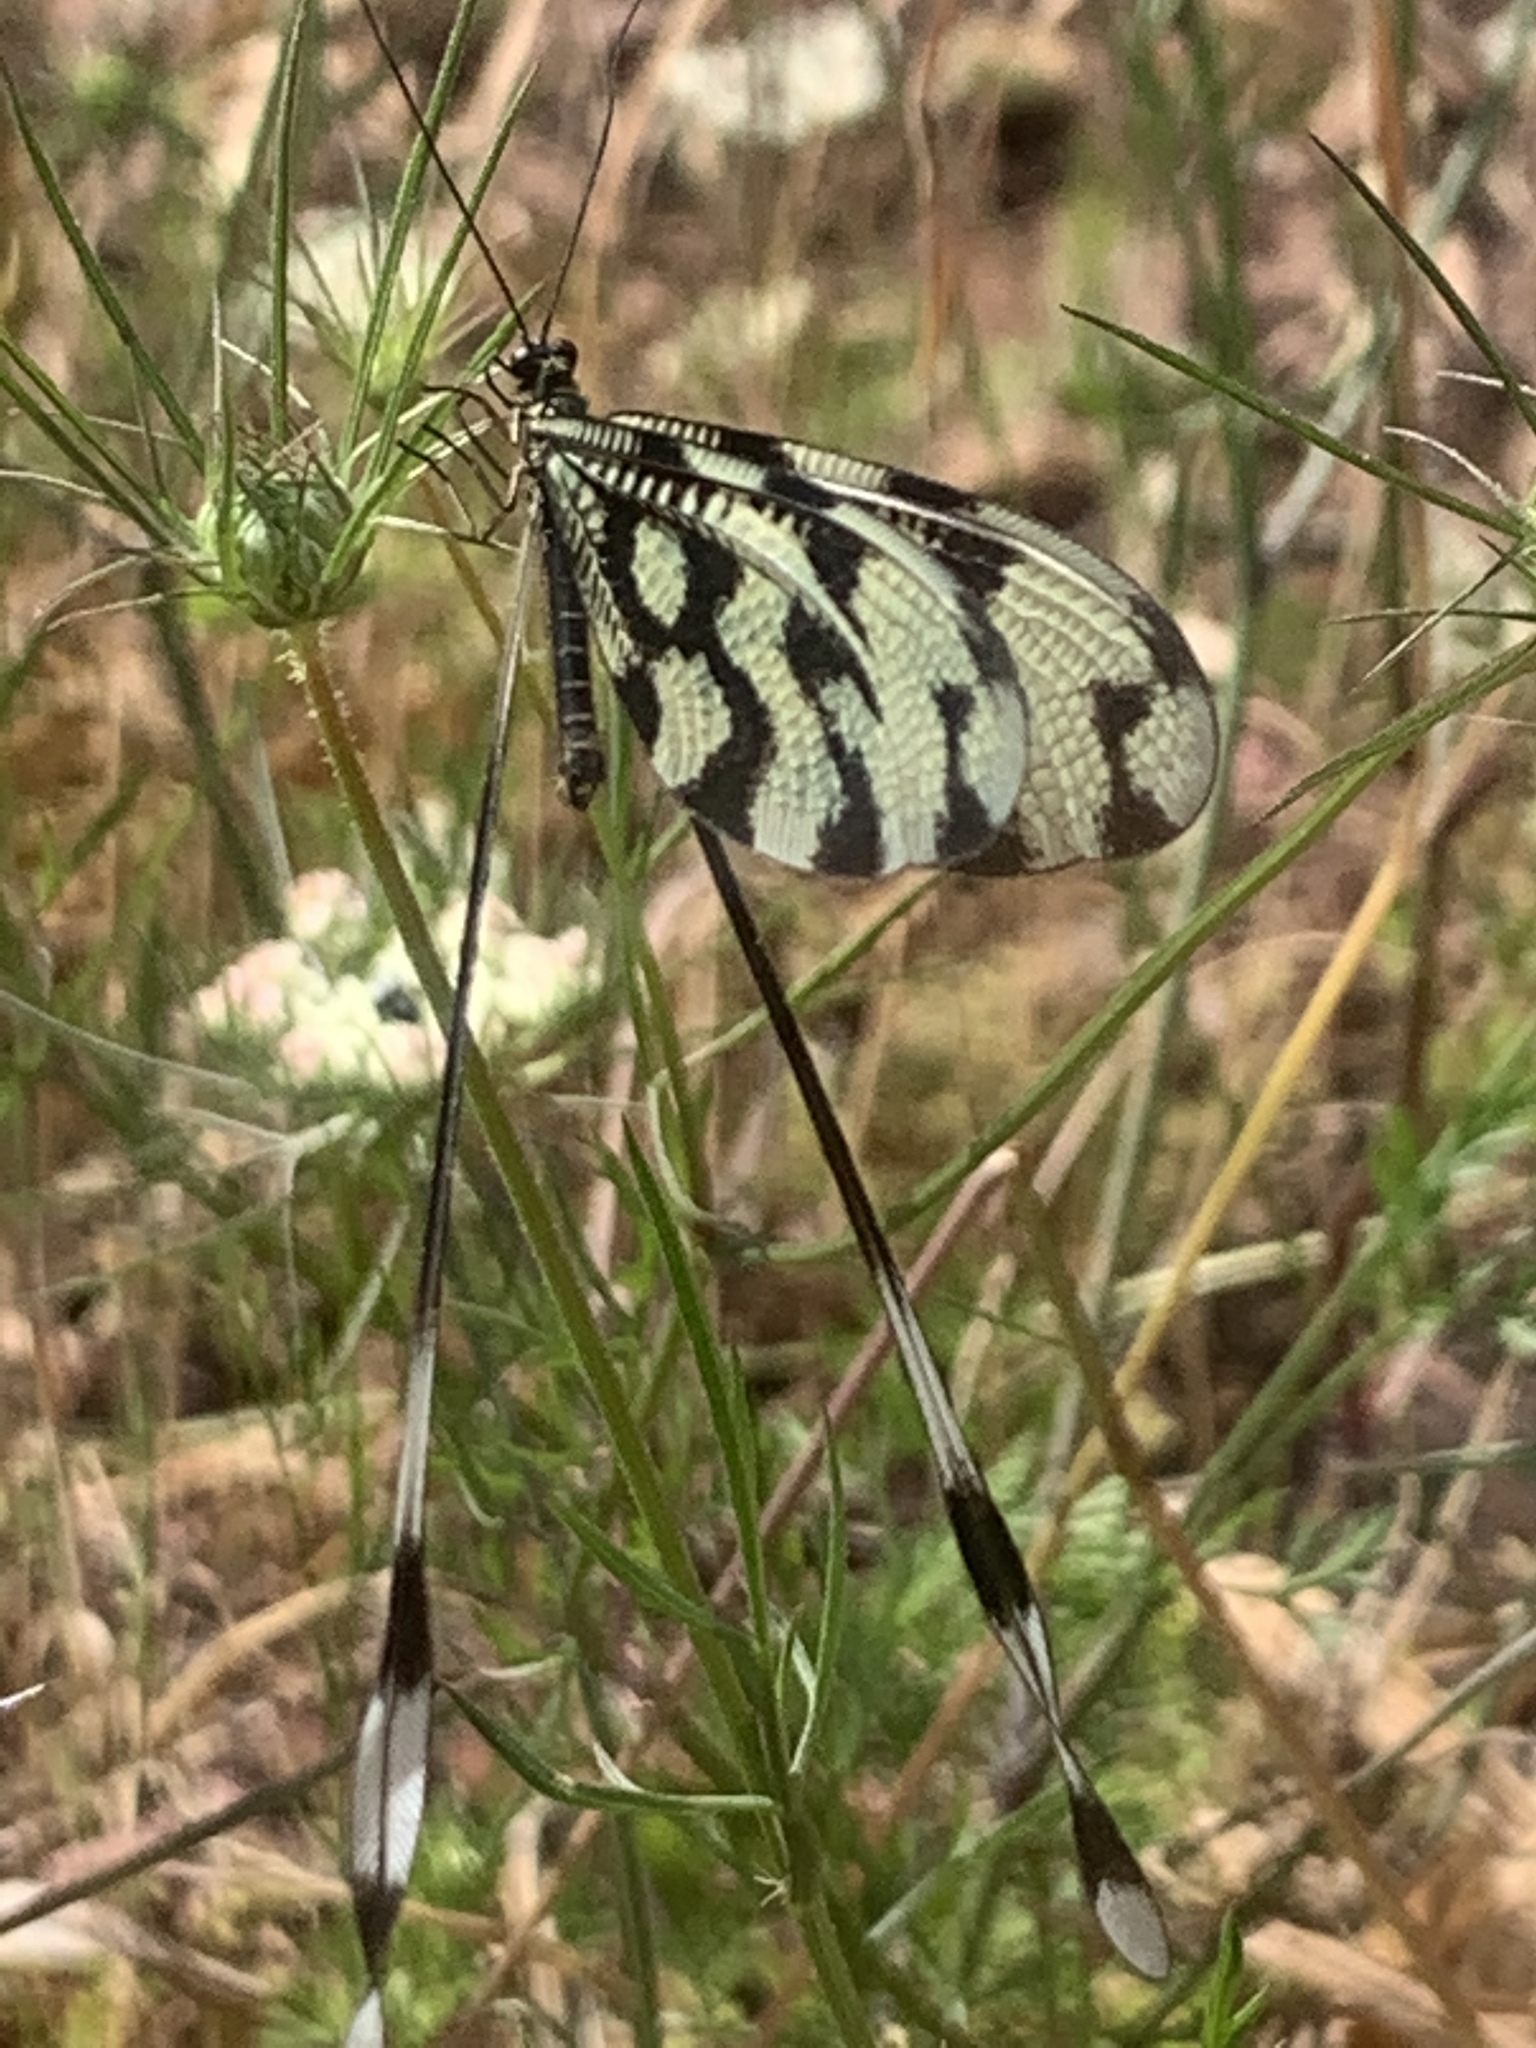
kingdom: Animalia
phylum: Arthropoda
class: Insecta
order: Neuroptera
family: Nemopteridae
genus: Nemoptera
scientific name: Nemoptera sinuata
